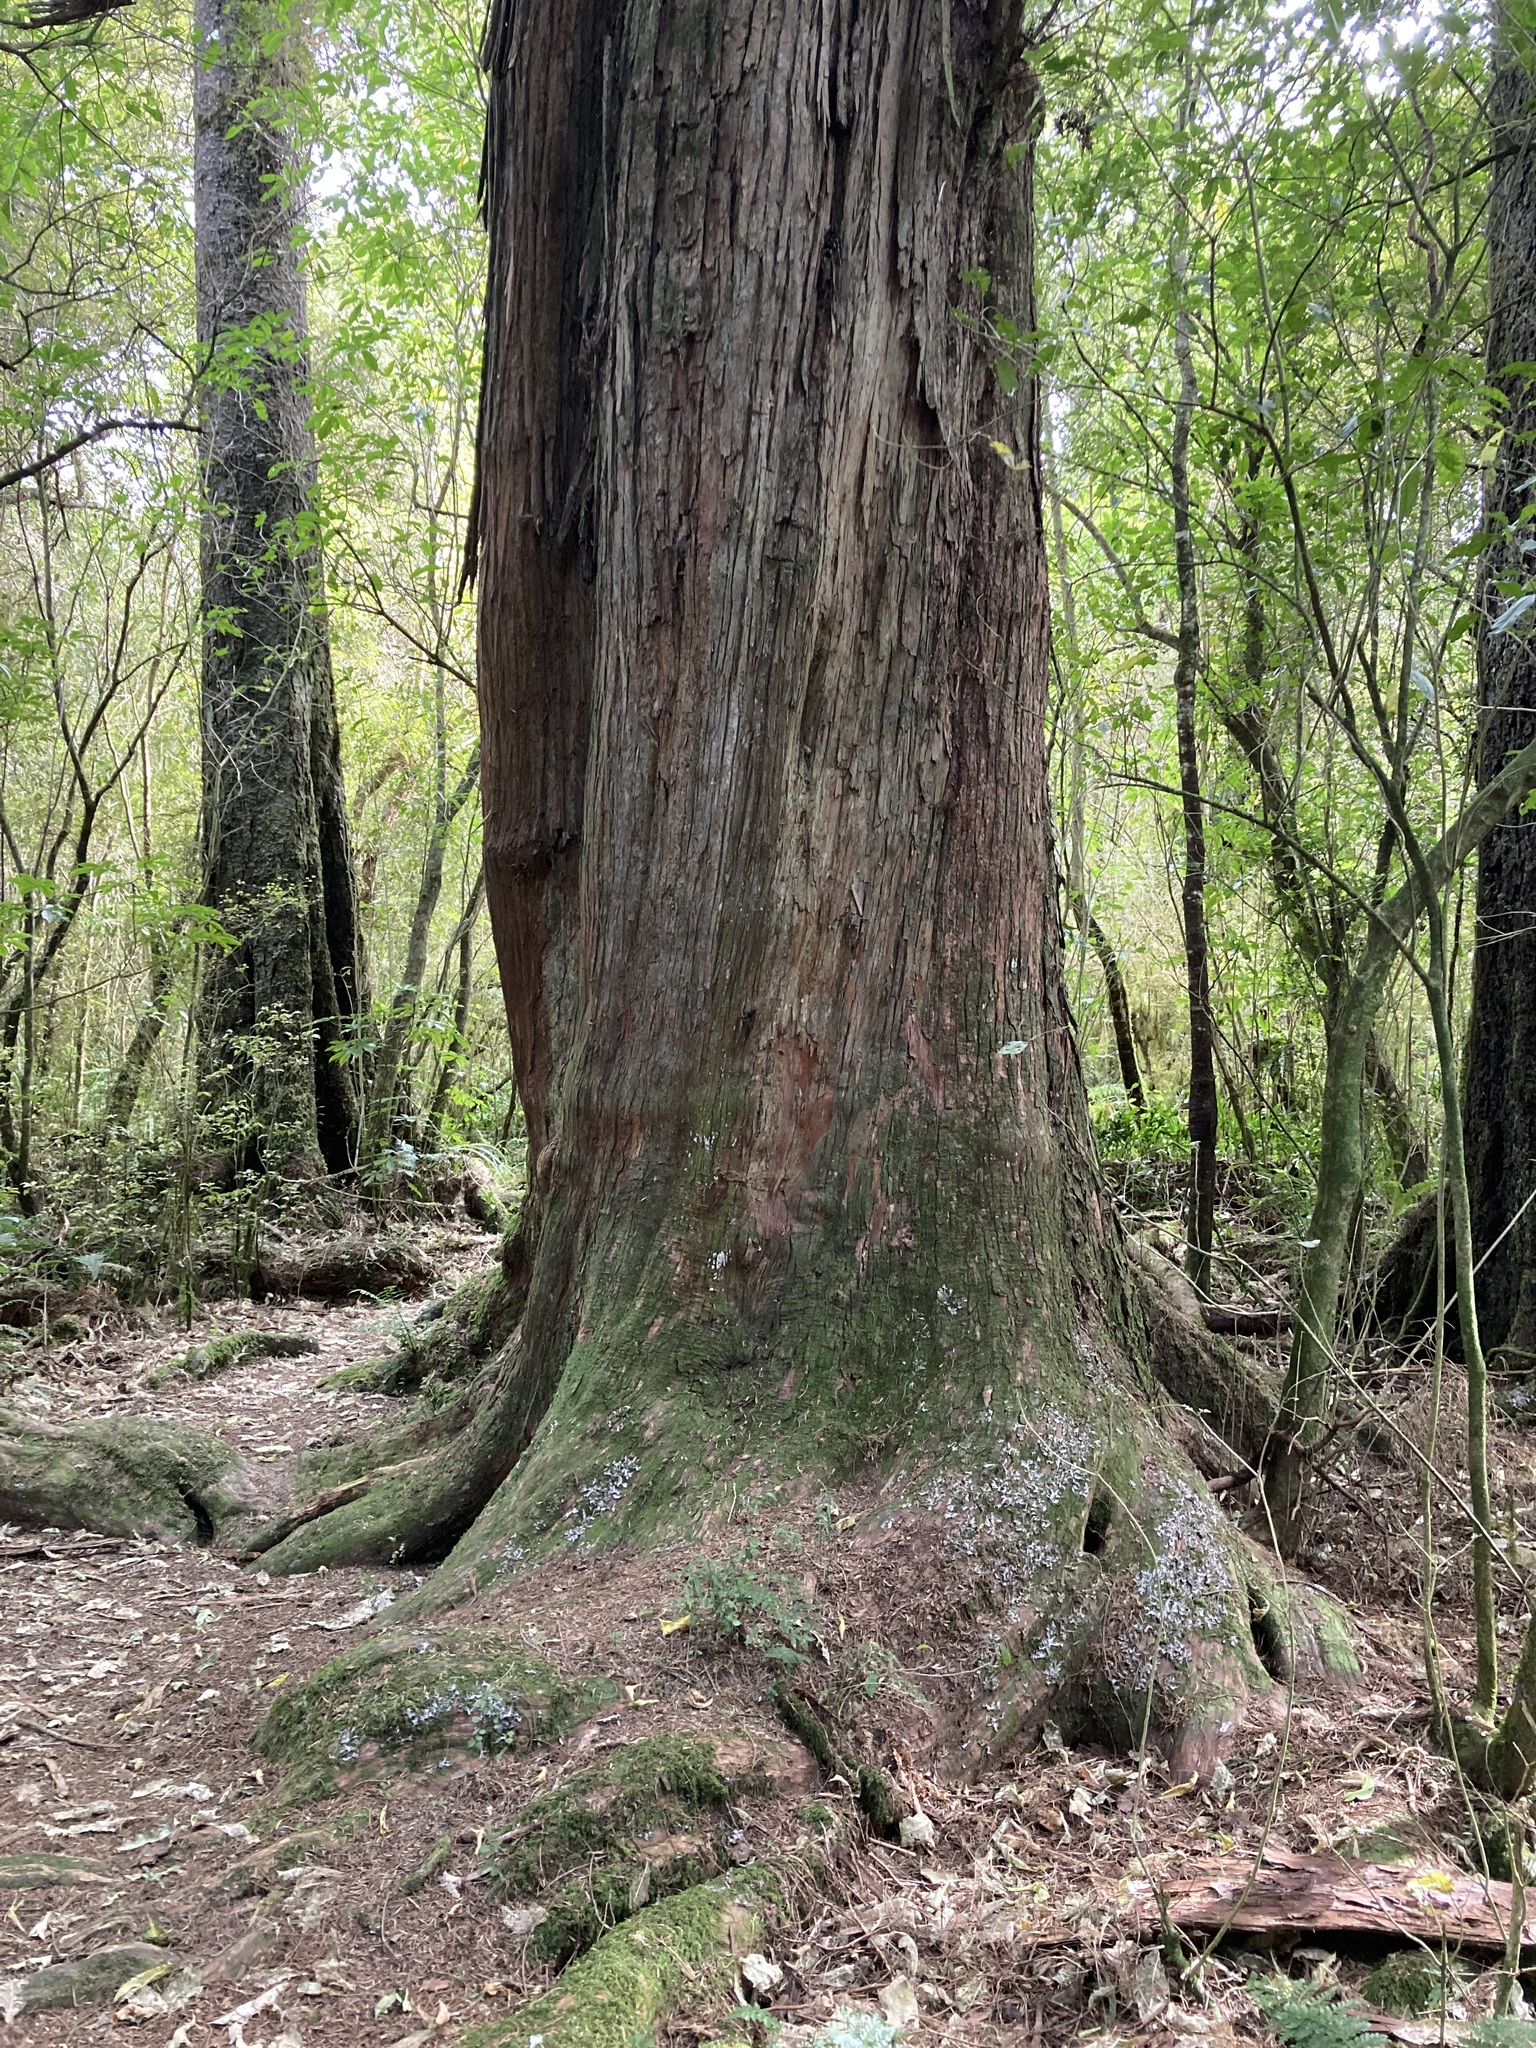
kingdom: Plantae
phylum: Tracheophyta
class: Pinopsida
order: Pinales
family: Podocarpaceae
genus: Podocarpus
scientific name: Podocarpus totara
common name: Totara
